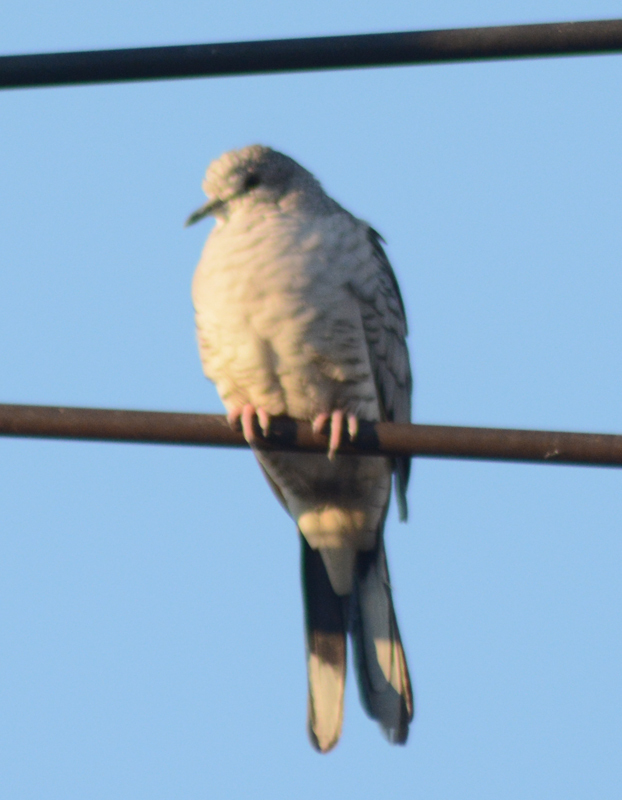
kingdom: Animalia
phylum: Chordata
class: Aves
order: Columbiformes
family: Columbidae
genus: Columbina
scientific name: Columbina inca
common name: Inca dove
